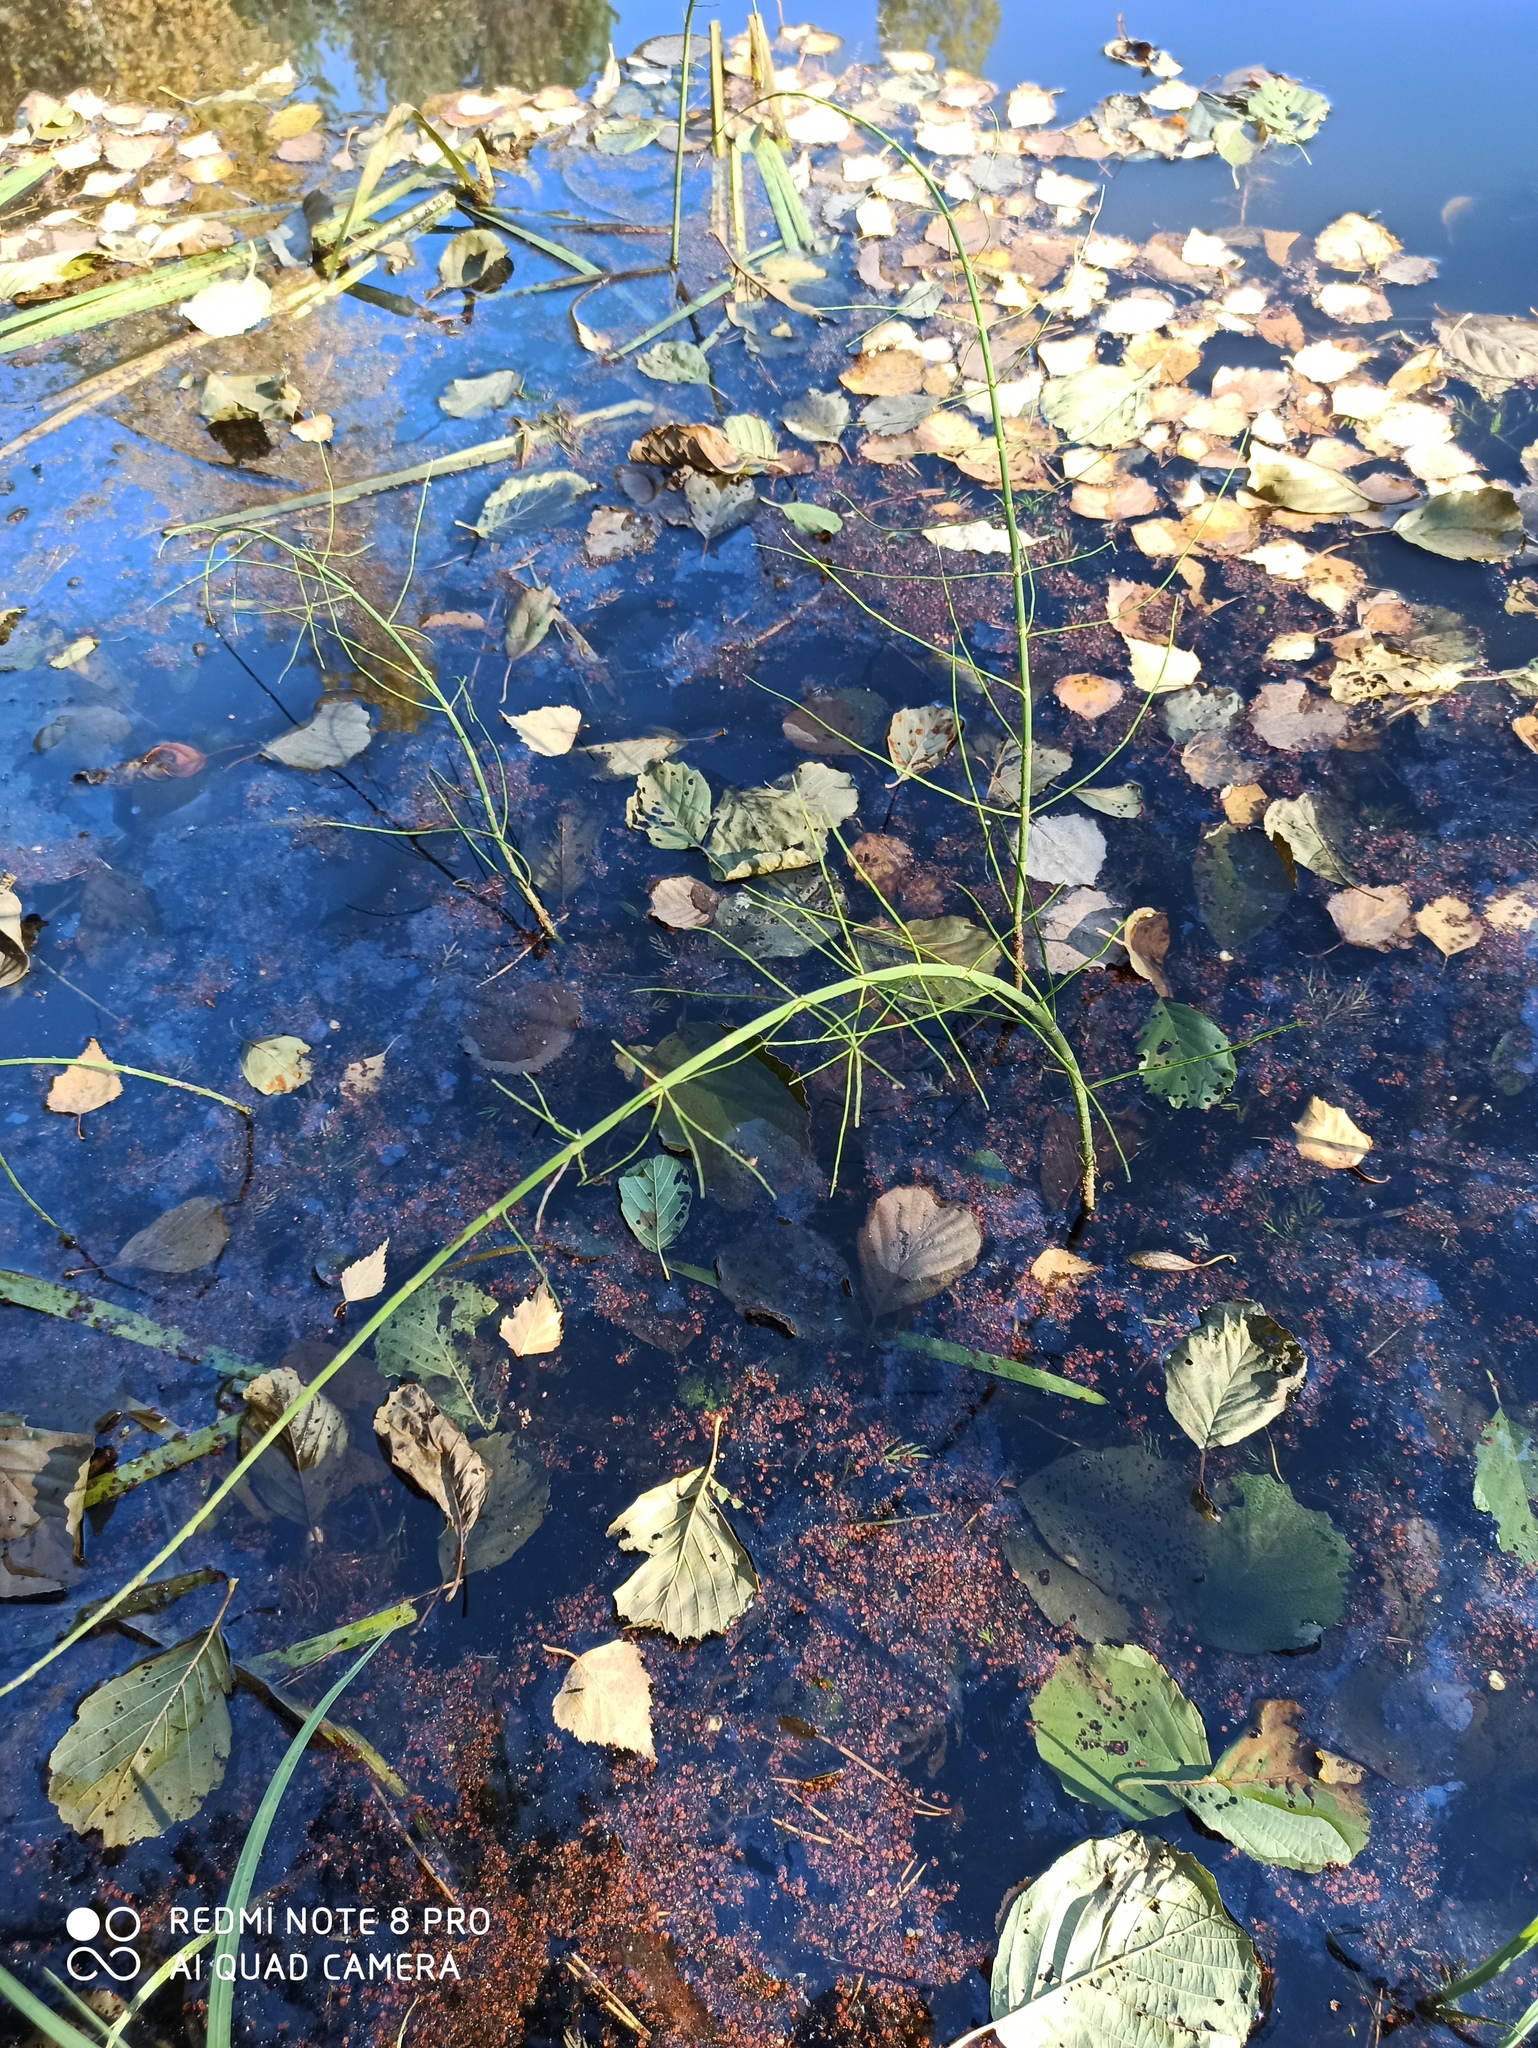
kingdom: Plantae
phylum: Tracheophyta
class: Polypodiopsida
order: Equisetales
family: Equisetaceae
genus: Equisetum
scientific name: Equisetum fluviatile
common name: Water horsetail
